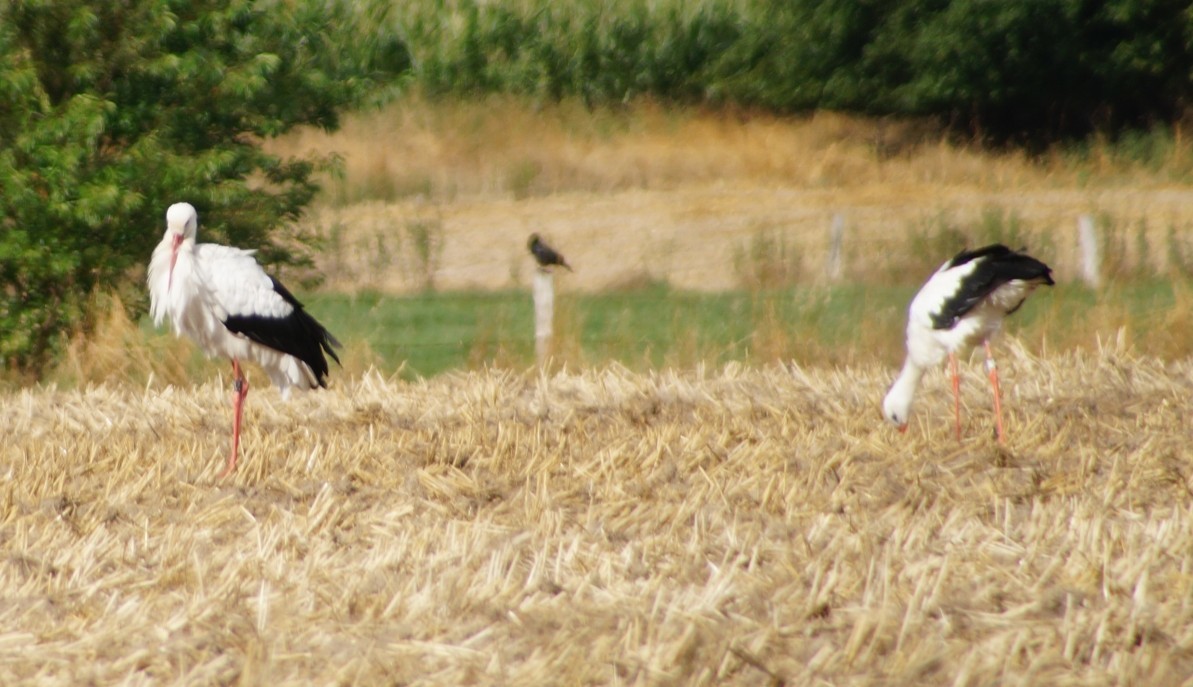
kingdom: Animalia
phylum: Chordata
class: Aves
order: Ciconiiformes
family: Ciconiidae
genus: Ciconia
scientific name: Ciconia ciconia
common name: White stork
